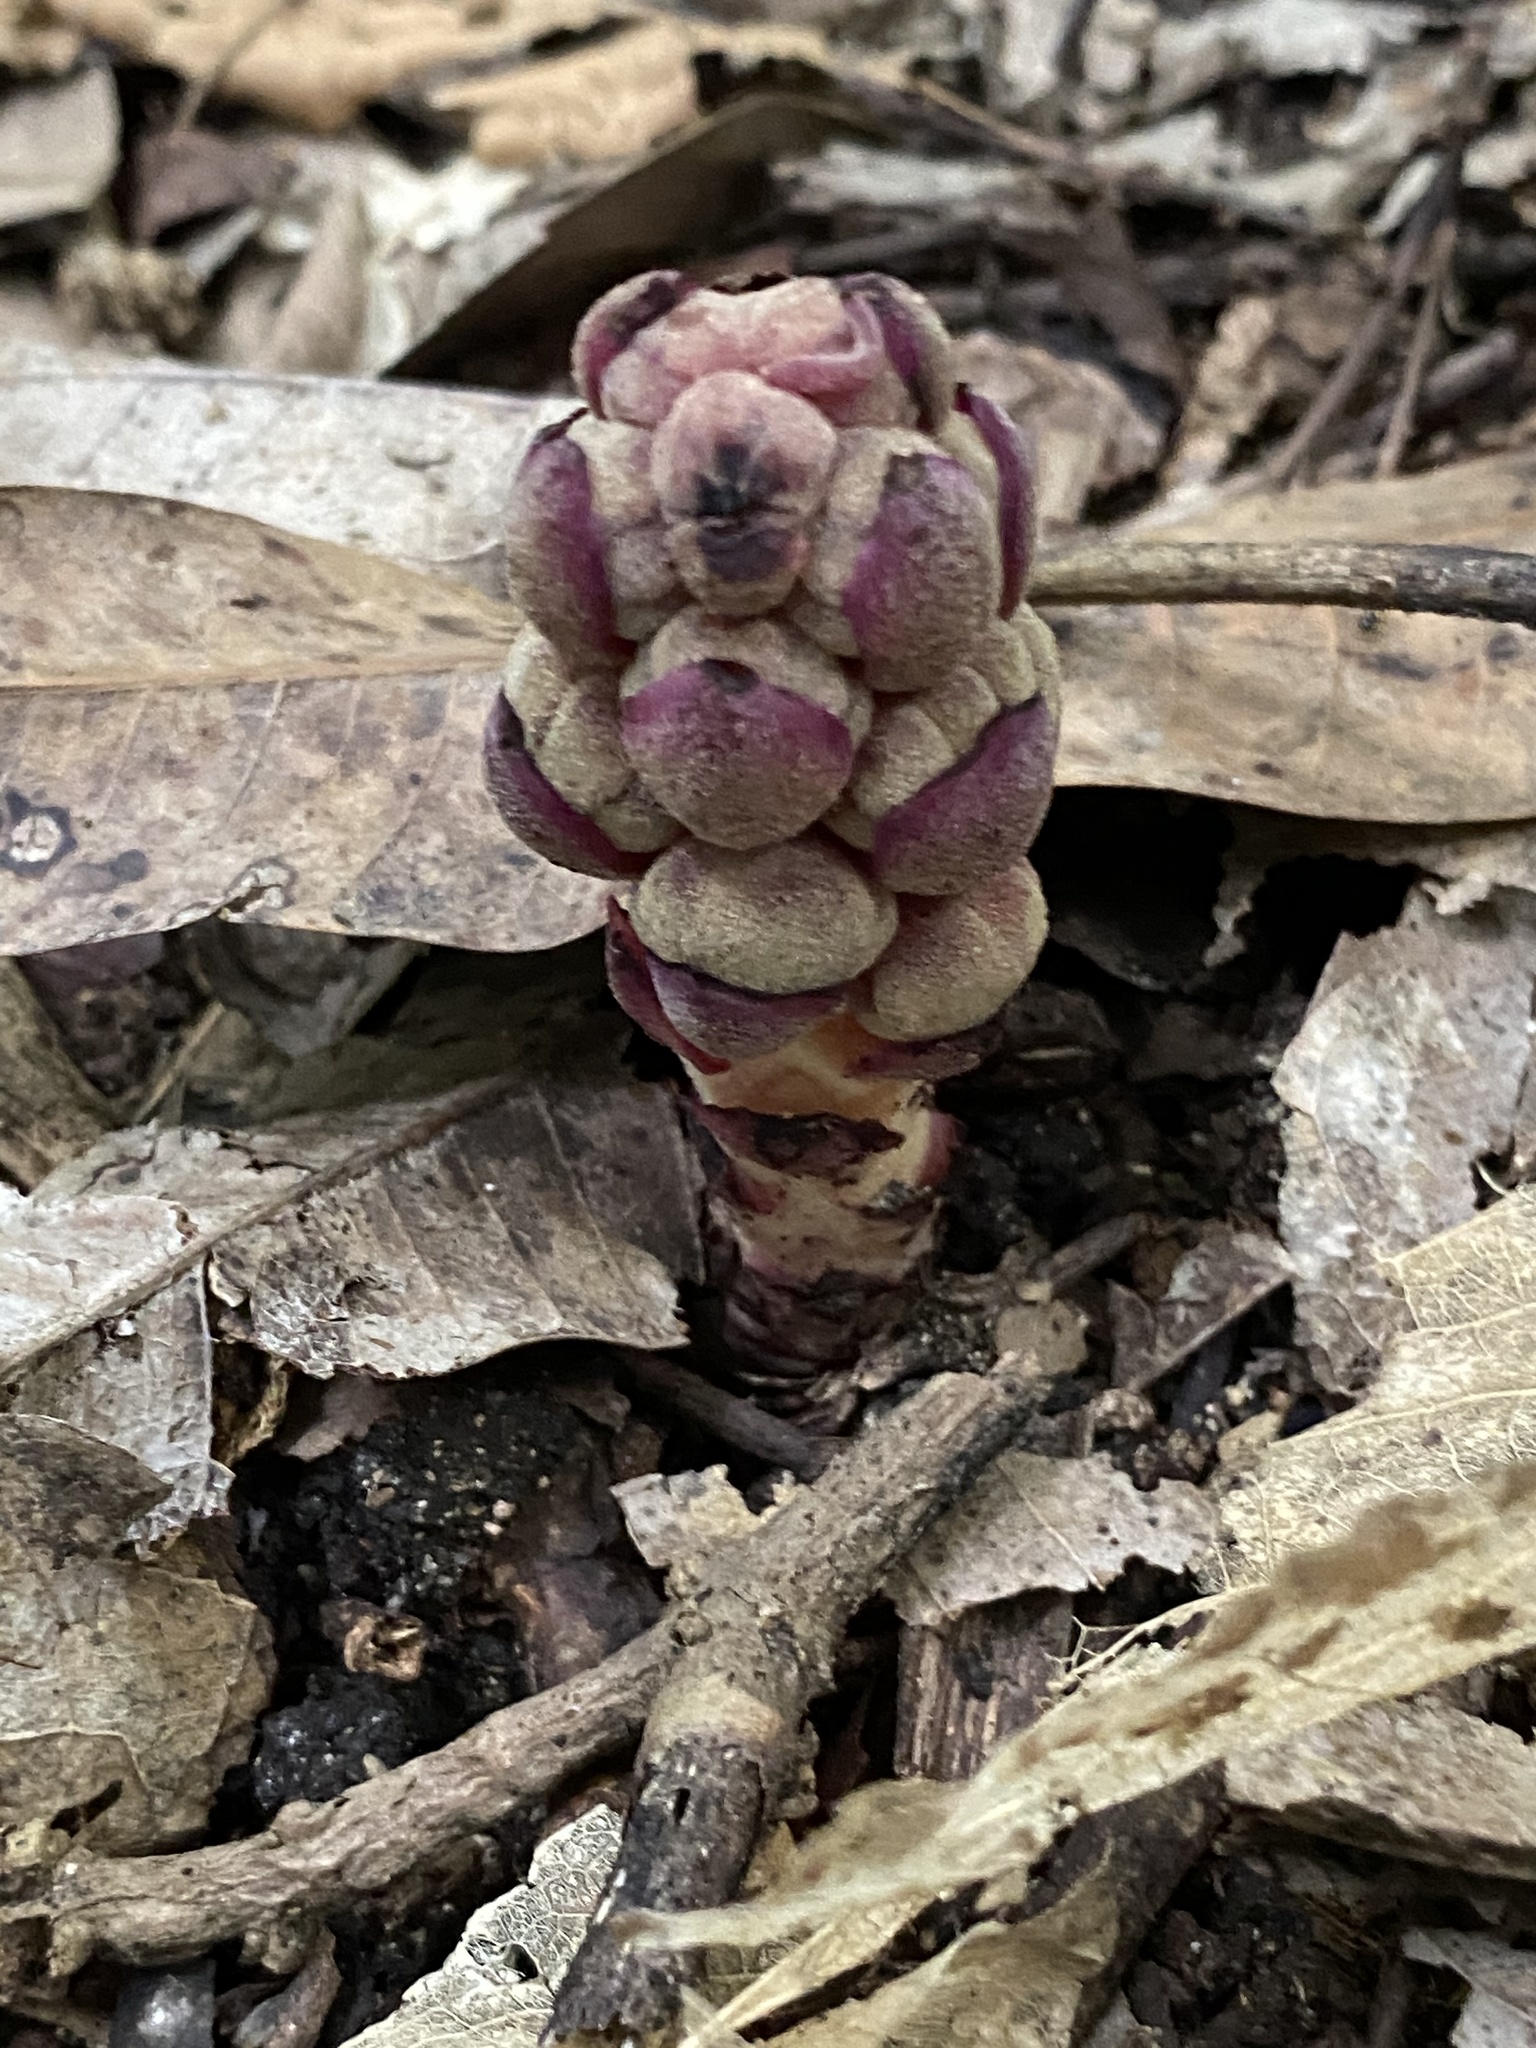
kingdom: Plantae
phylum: Tracheophyta
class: Magnoliopsida
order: Malvales
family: Cytinaceae
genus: Bdallophyton
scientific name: Bdallophyton americanum
